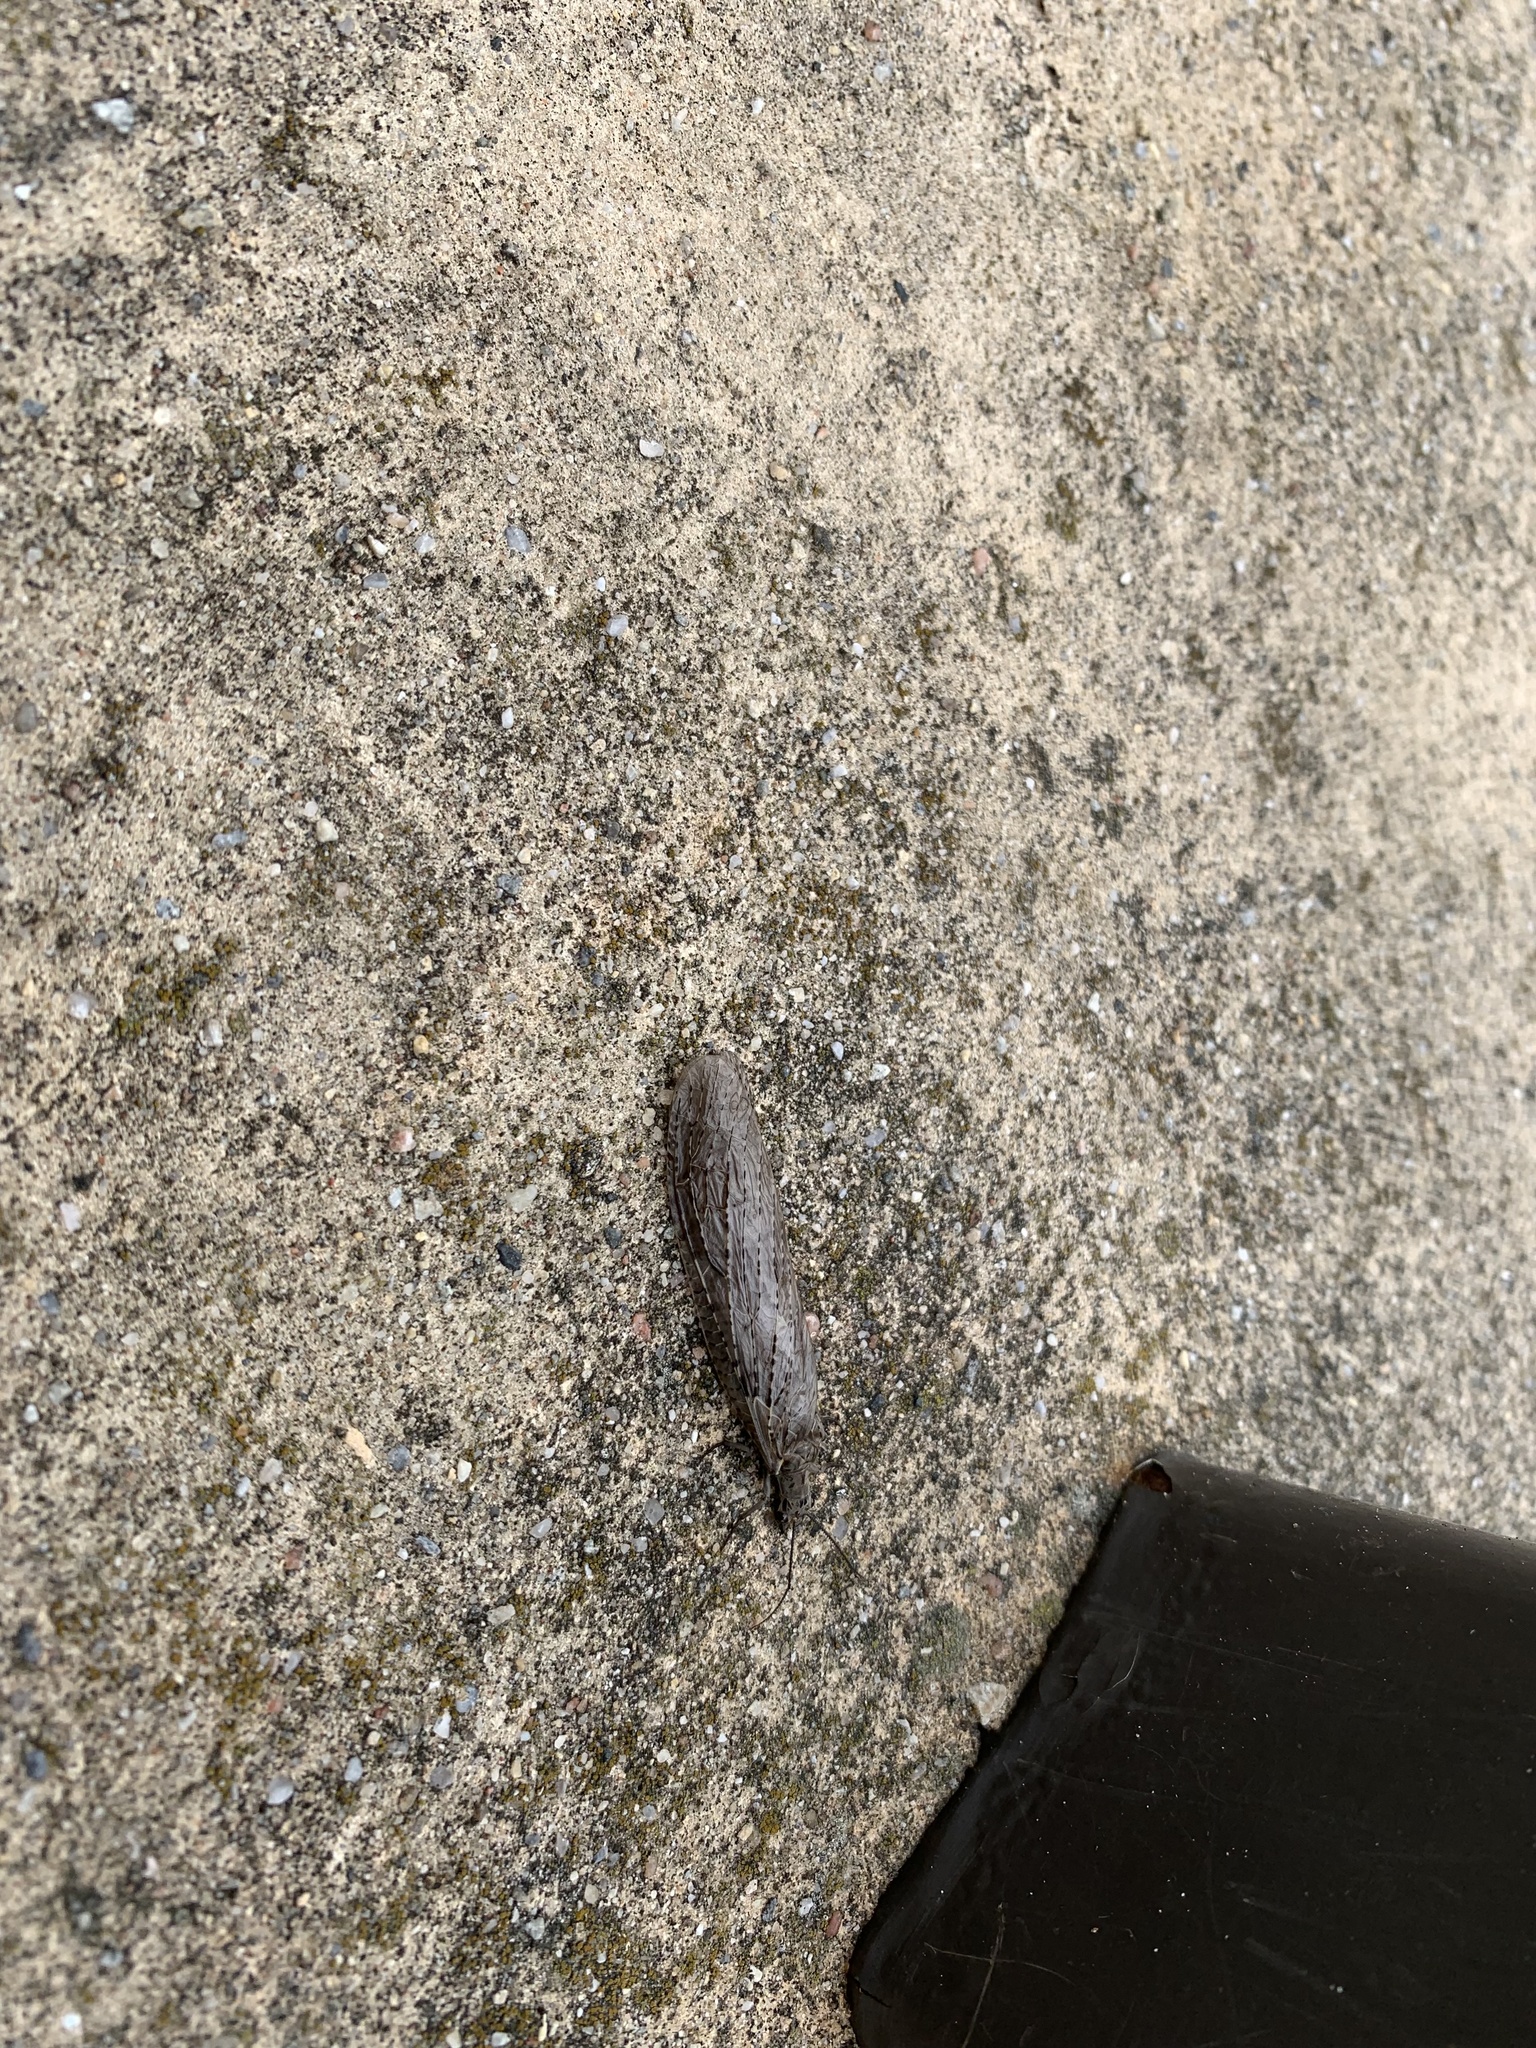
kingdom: Animalia
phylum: Arthropoda
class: Insecta
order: Megaloptera
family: Corydalidae
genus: Chauliodes
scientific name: Chauliodes rastricornis
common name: Spring fishfly
